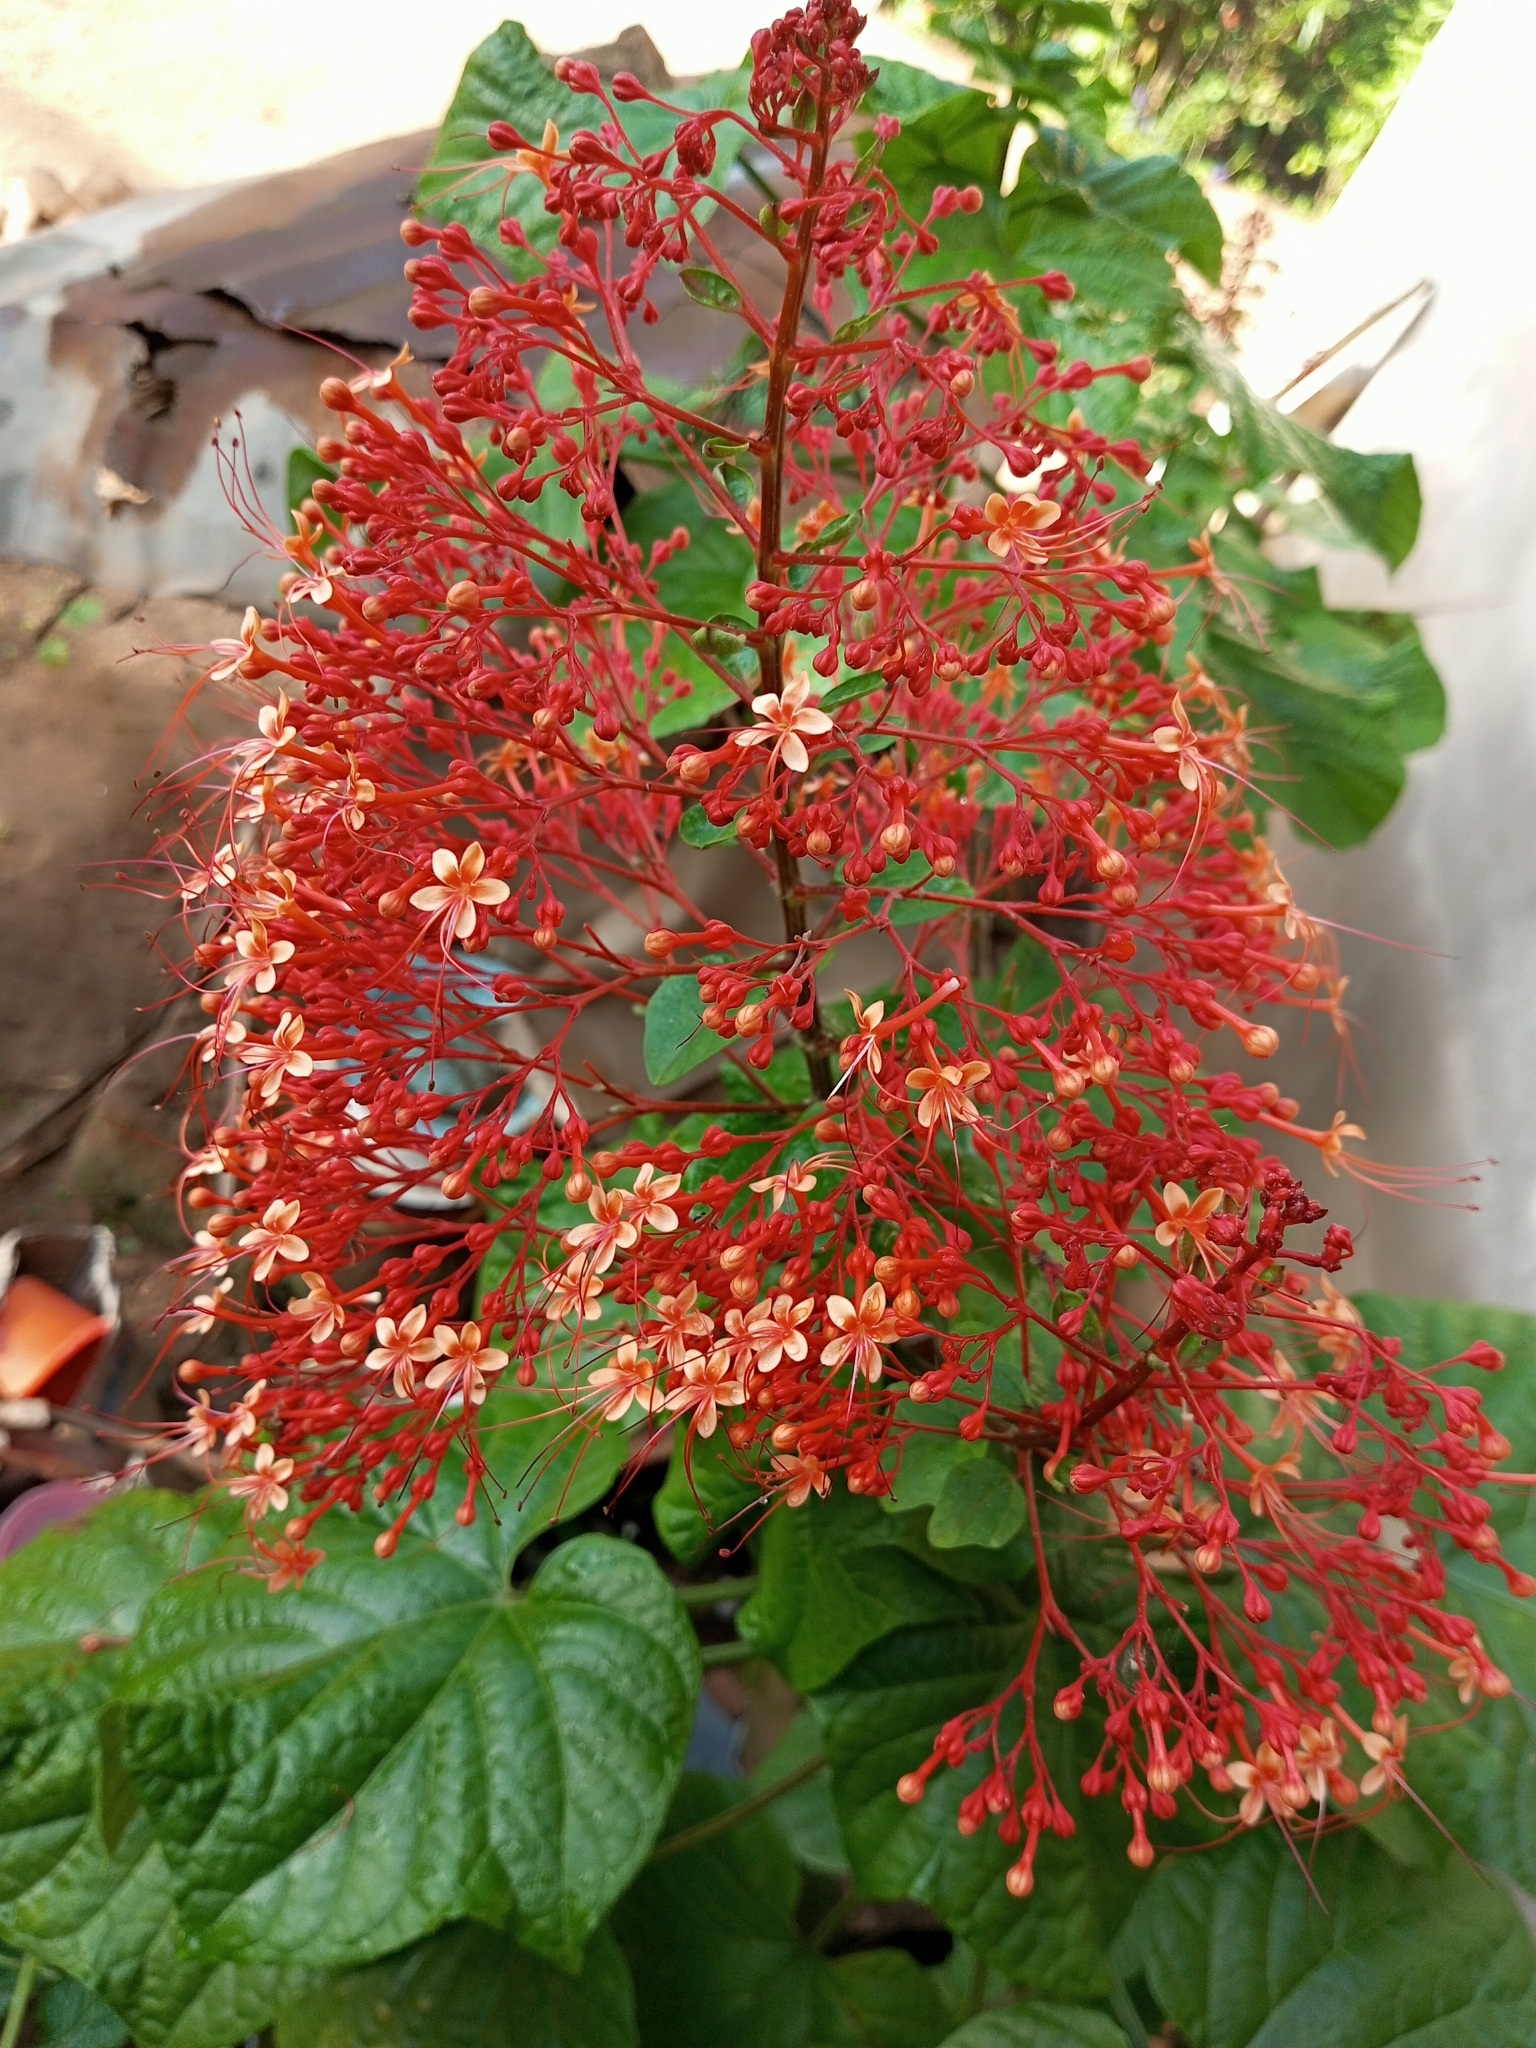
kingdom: Plantae
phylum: Tracheophyta
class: Magnoliopsida
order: Lamiales
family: Lamiaceae
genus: Clerodendrum
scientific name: Clerodendrum paniculatum
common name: Pagoda-flower
